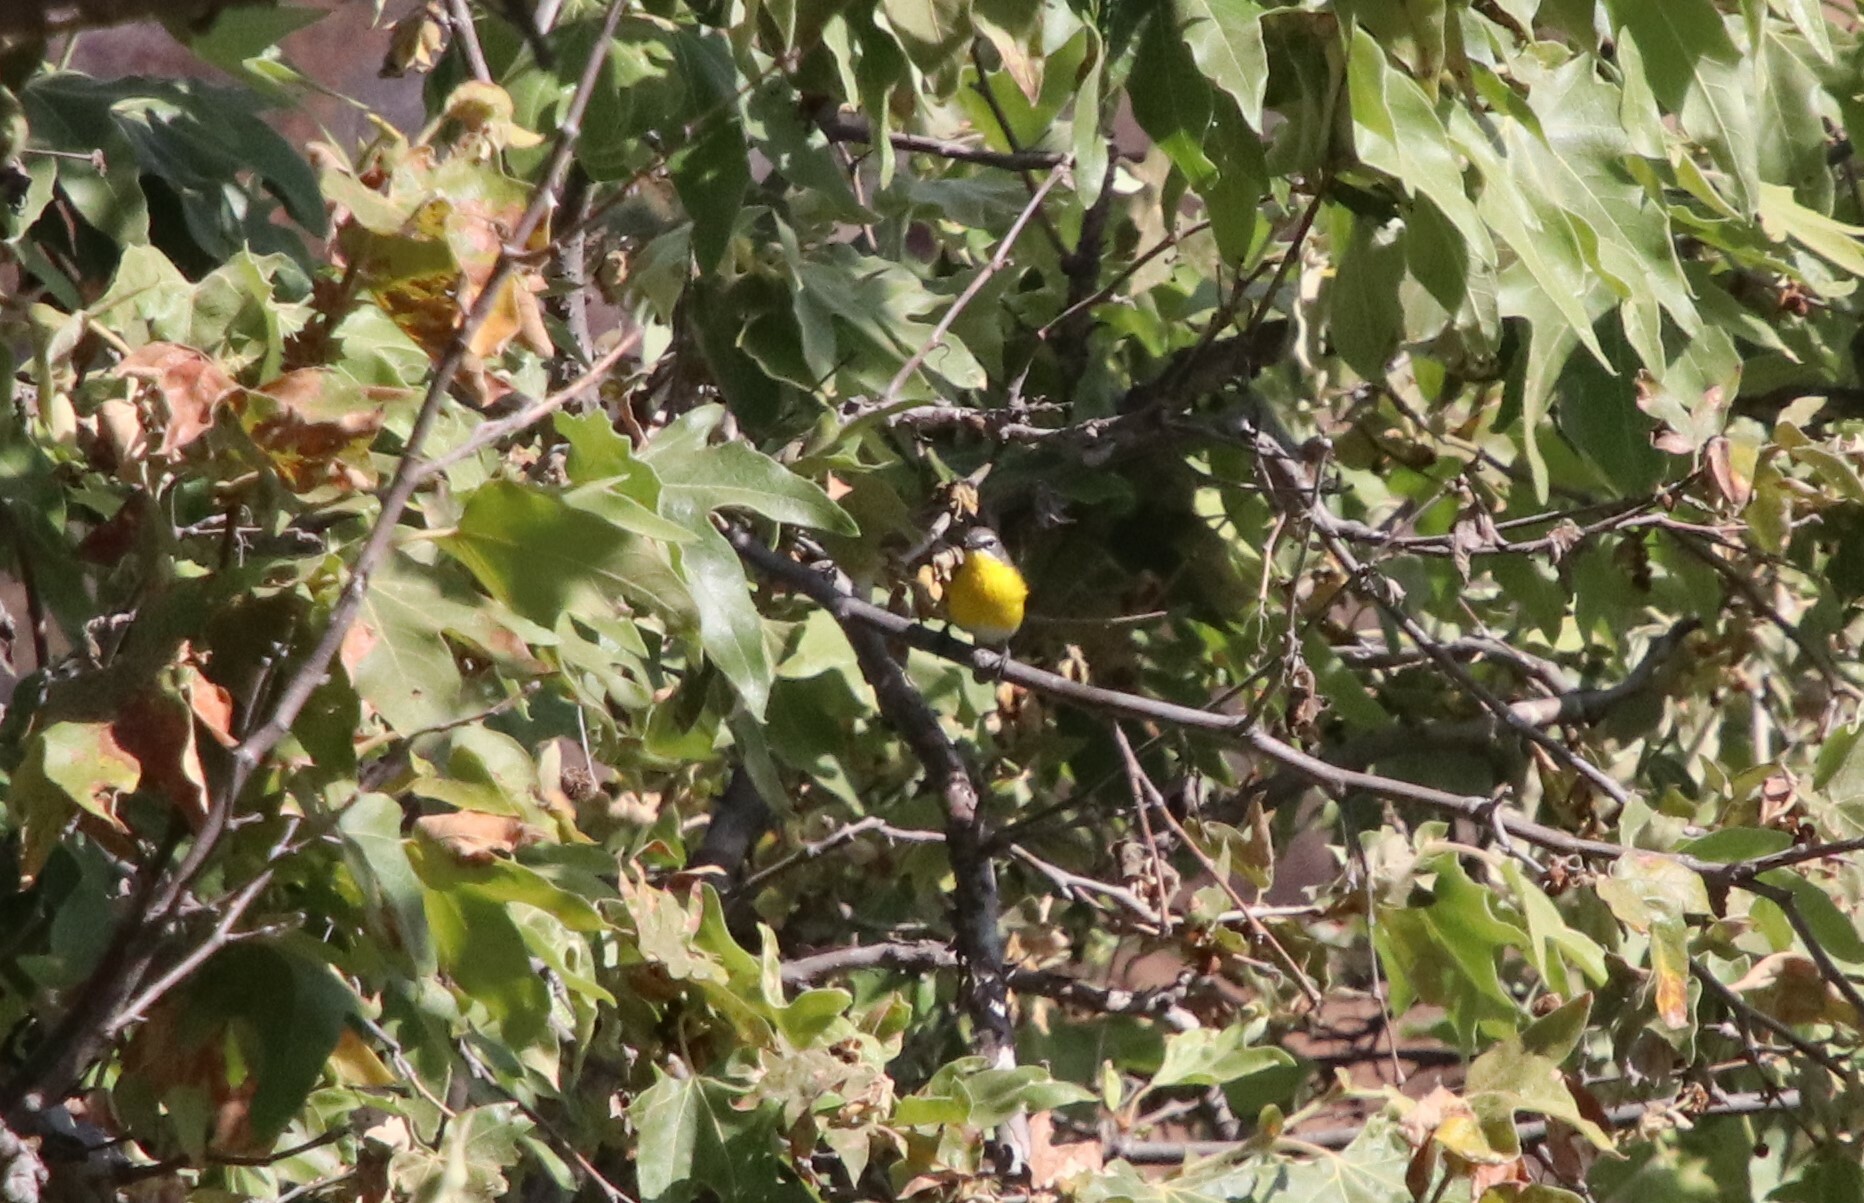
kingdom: Animalia
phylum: Chordata
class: Aves
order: Passeriformes
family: Parulidae
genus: Icteria
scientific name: Icteria virens
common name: Yellow-breasted chat
